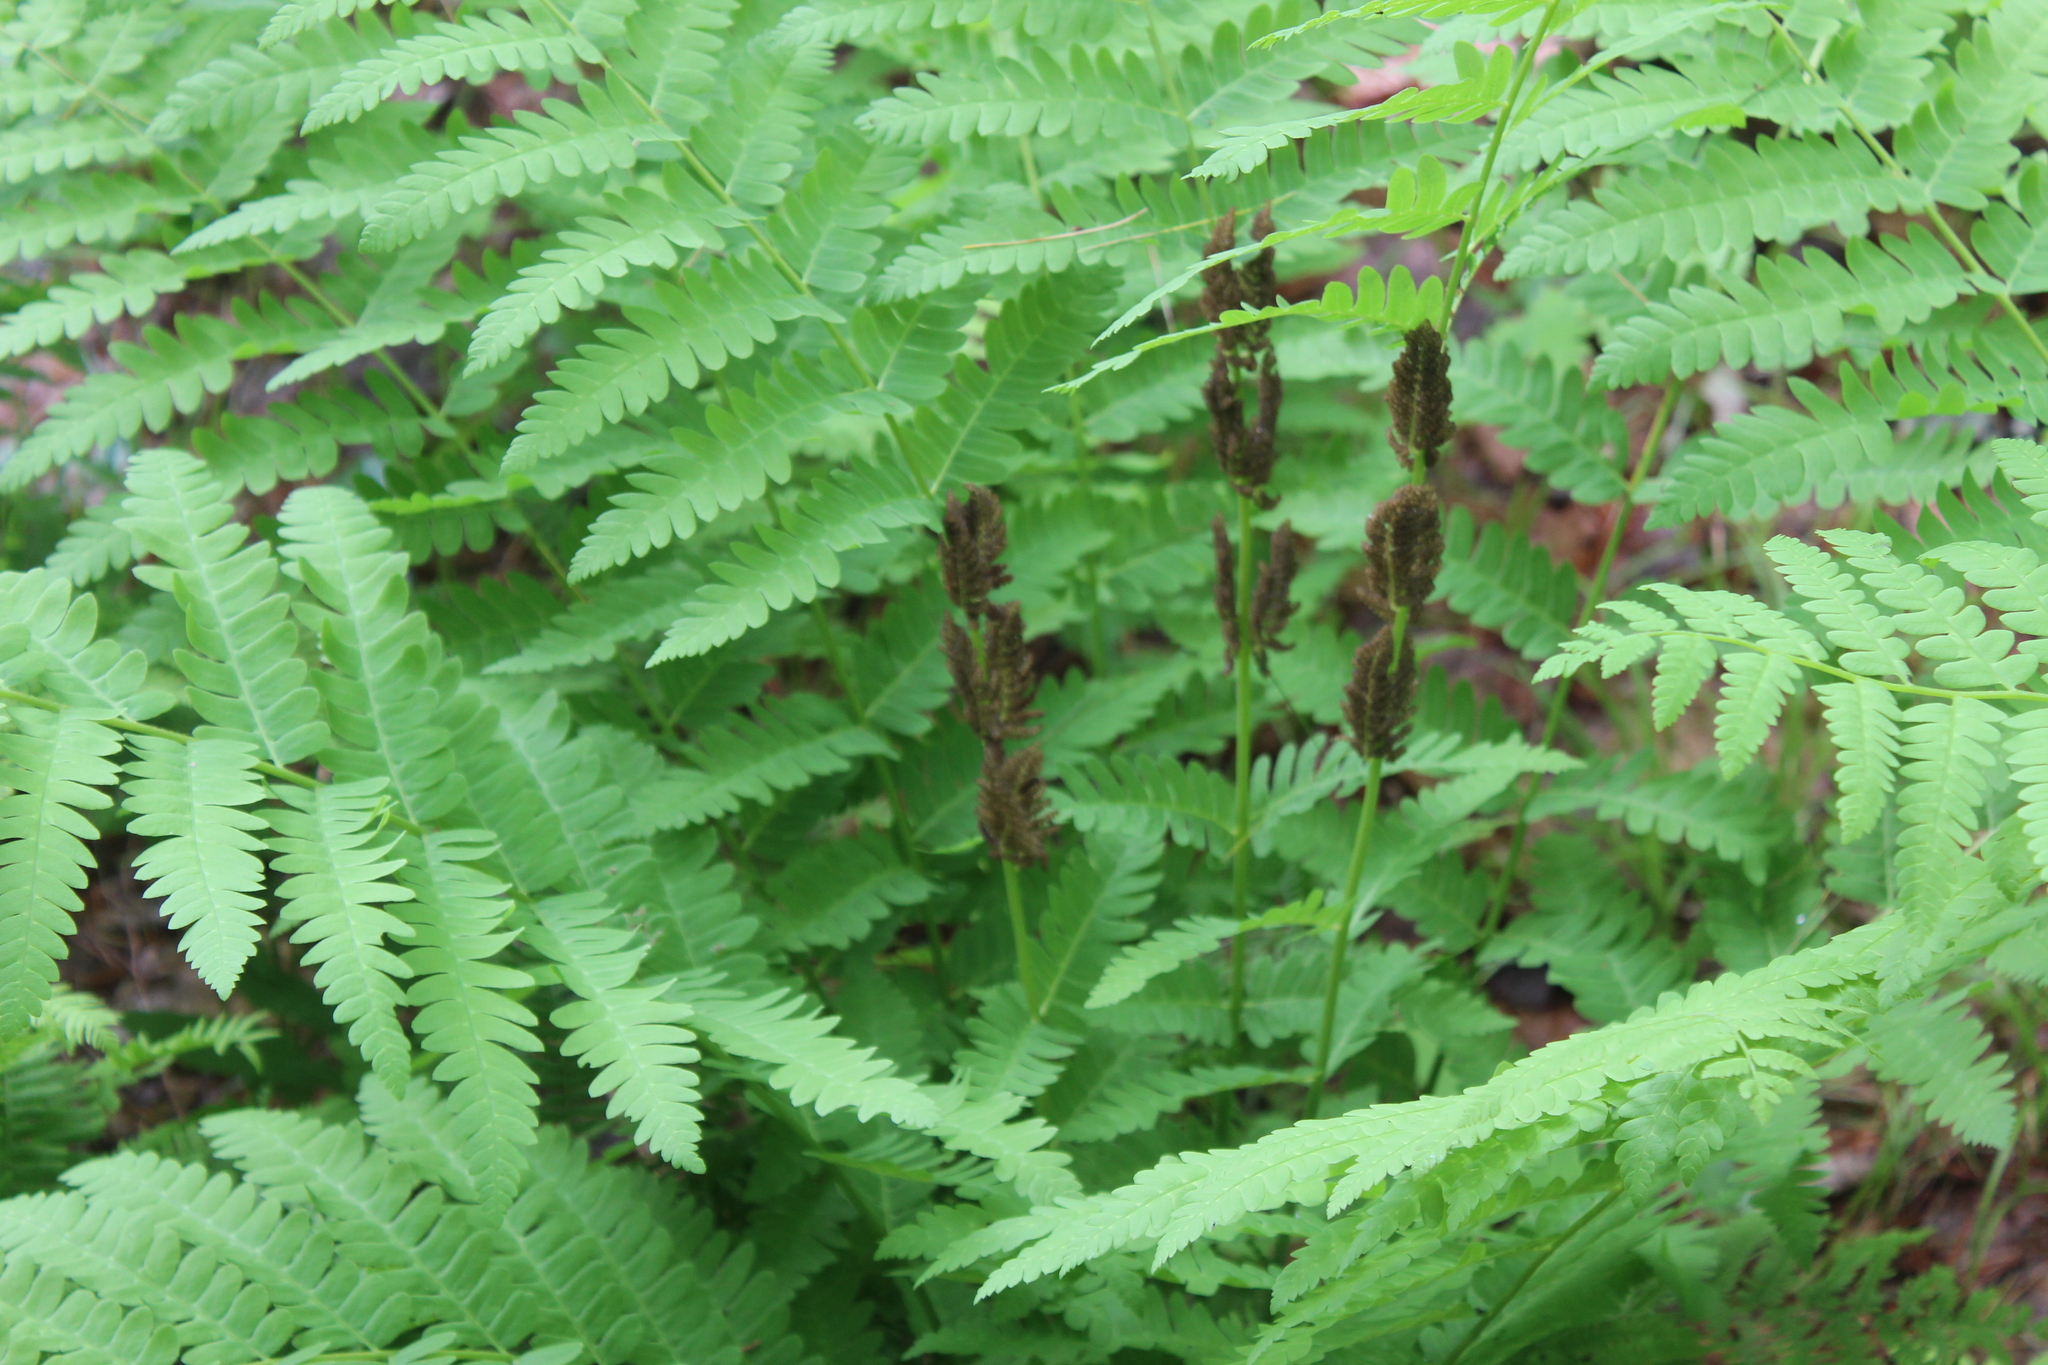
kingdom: Plantae
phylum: Tracheophyta
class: Polypodiopsida
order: Osmundales
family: Osmundaceae
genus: Claytosmunda
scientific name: Claytosmunda claytoniana
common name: Clayton's fern
